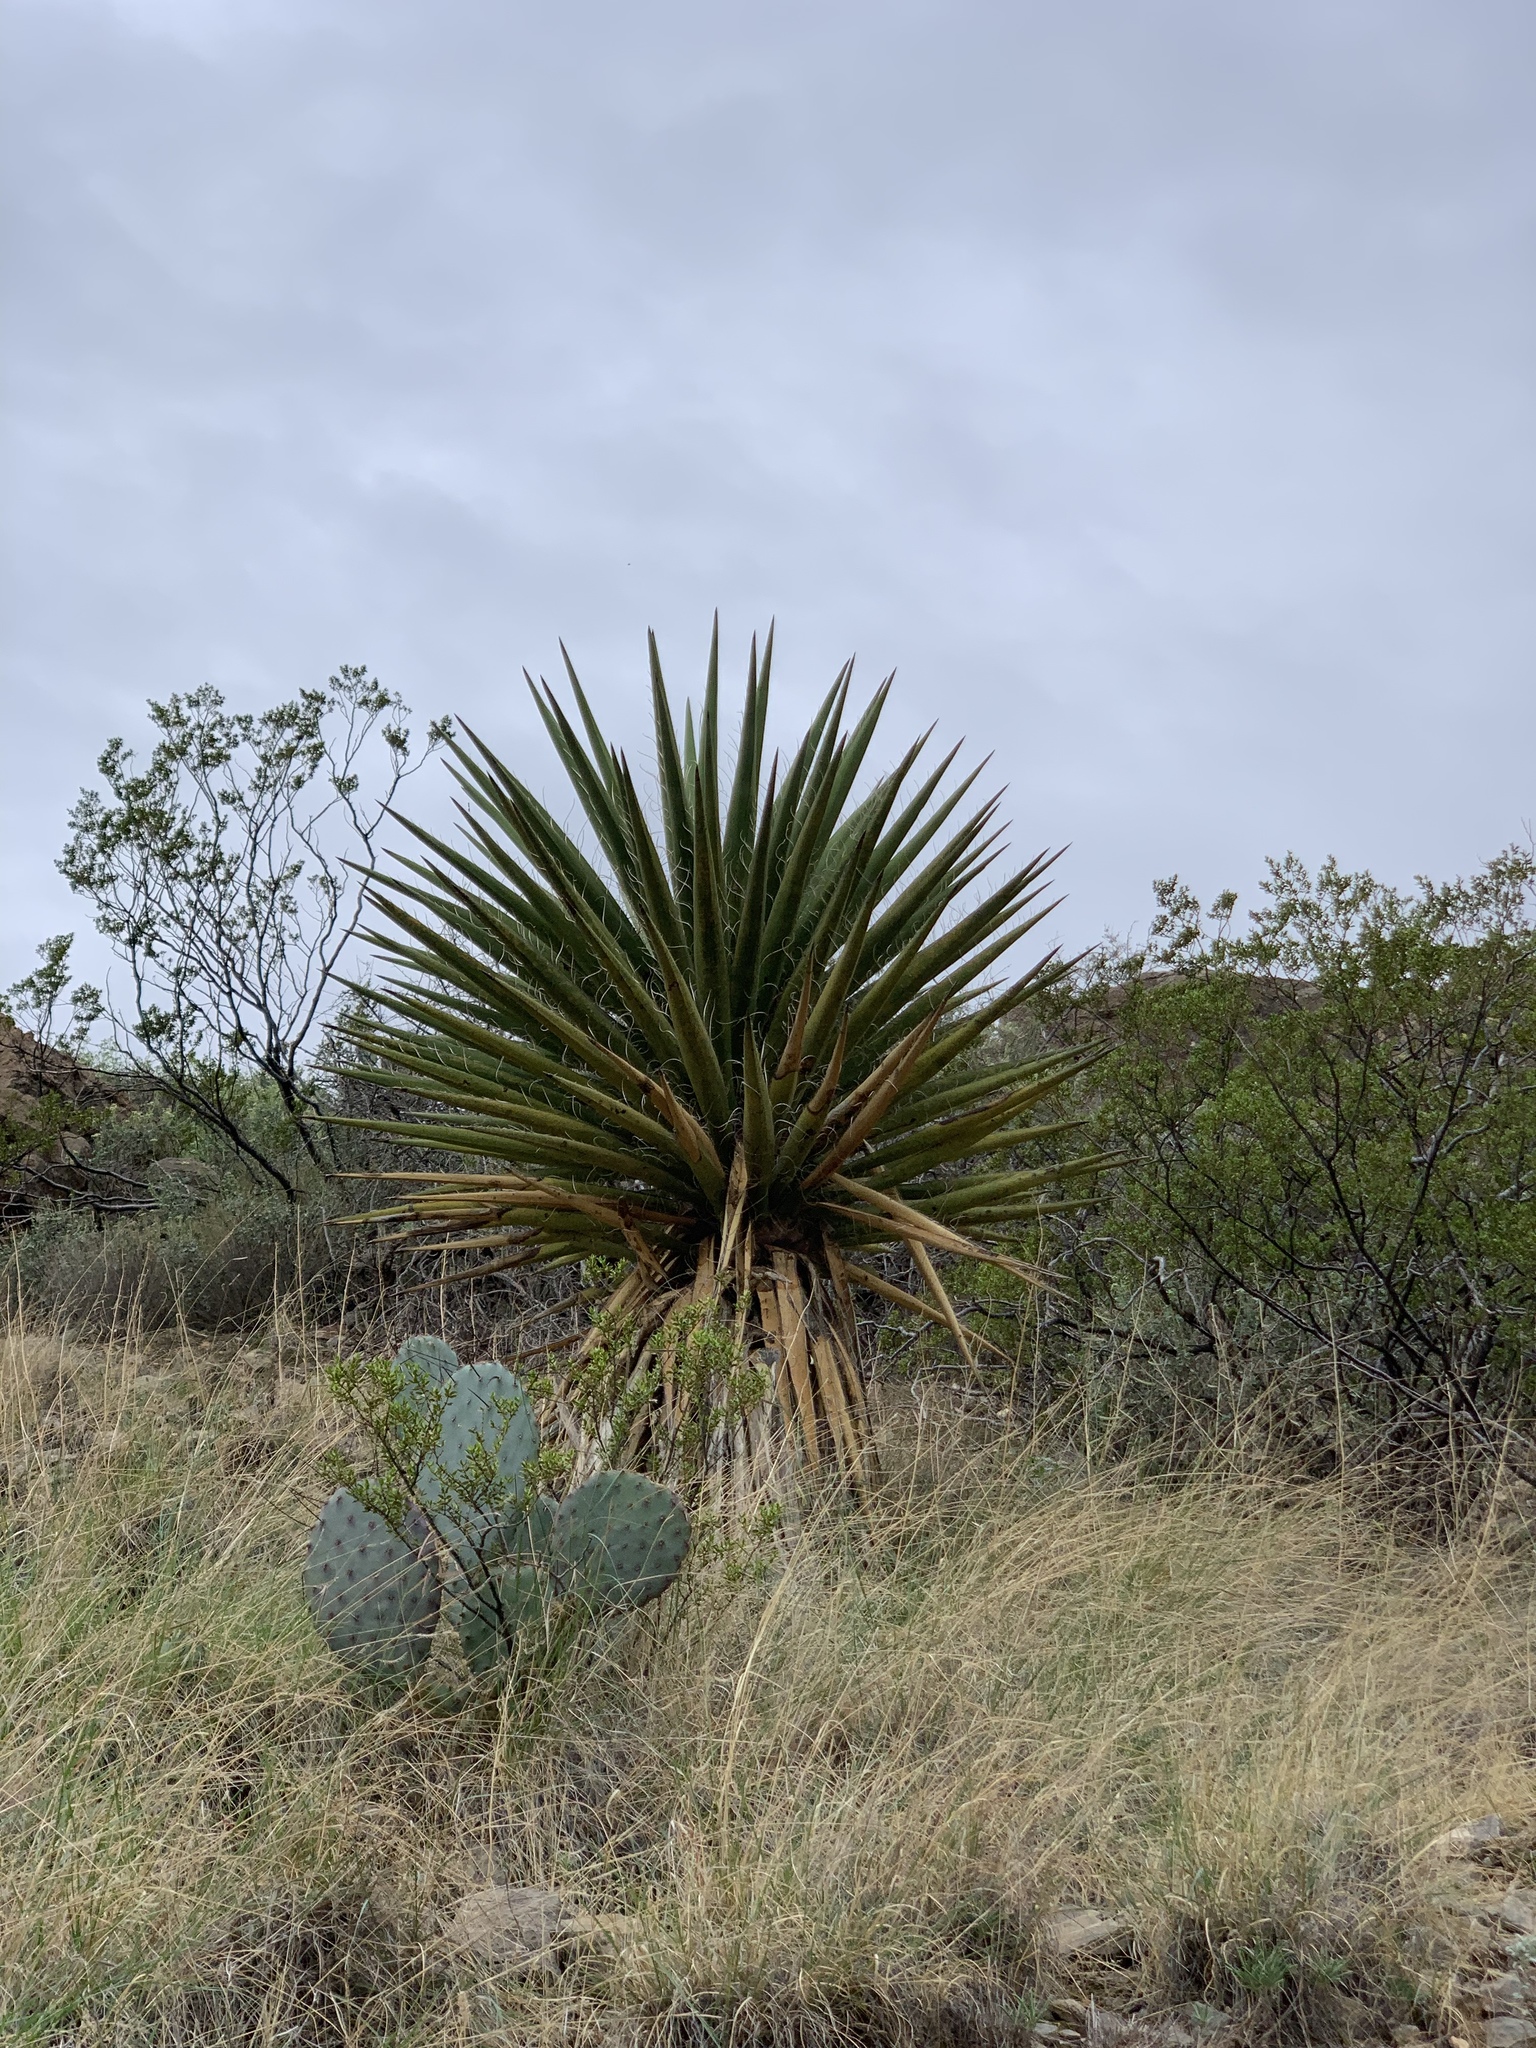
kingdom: Plantae
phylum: Tracheophyta
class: Liliopsida
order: Asparagales
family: Asparagaceae
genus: Yucca
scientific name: Yucca treculiana
